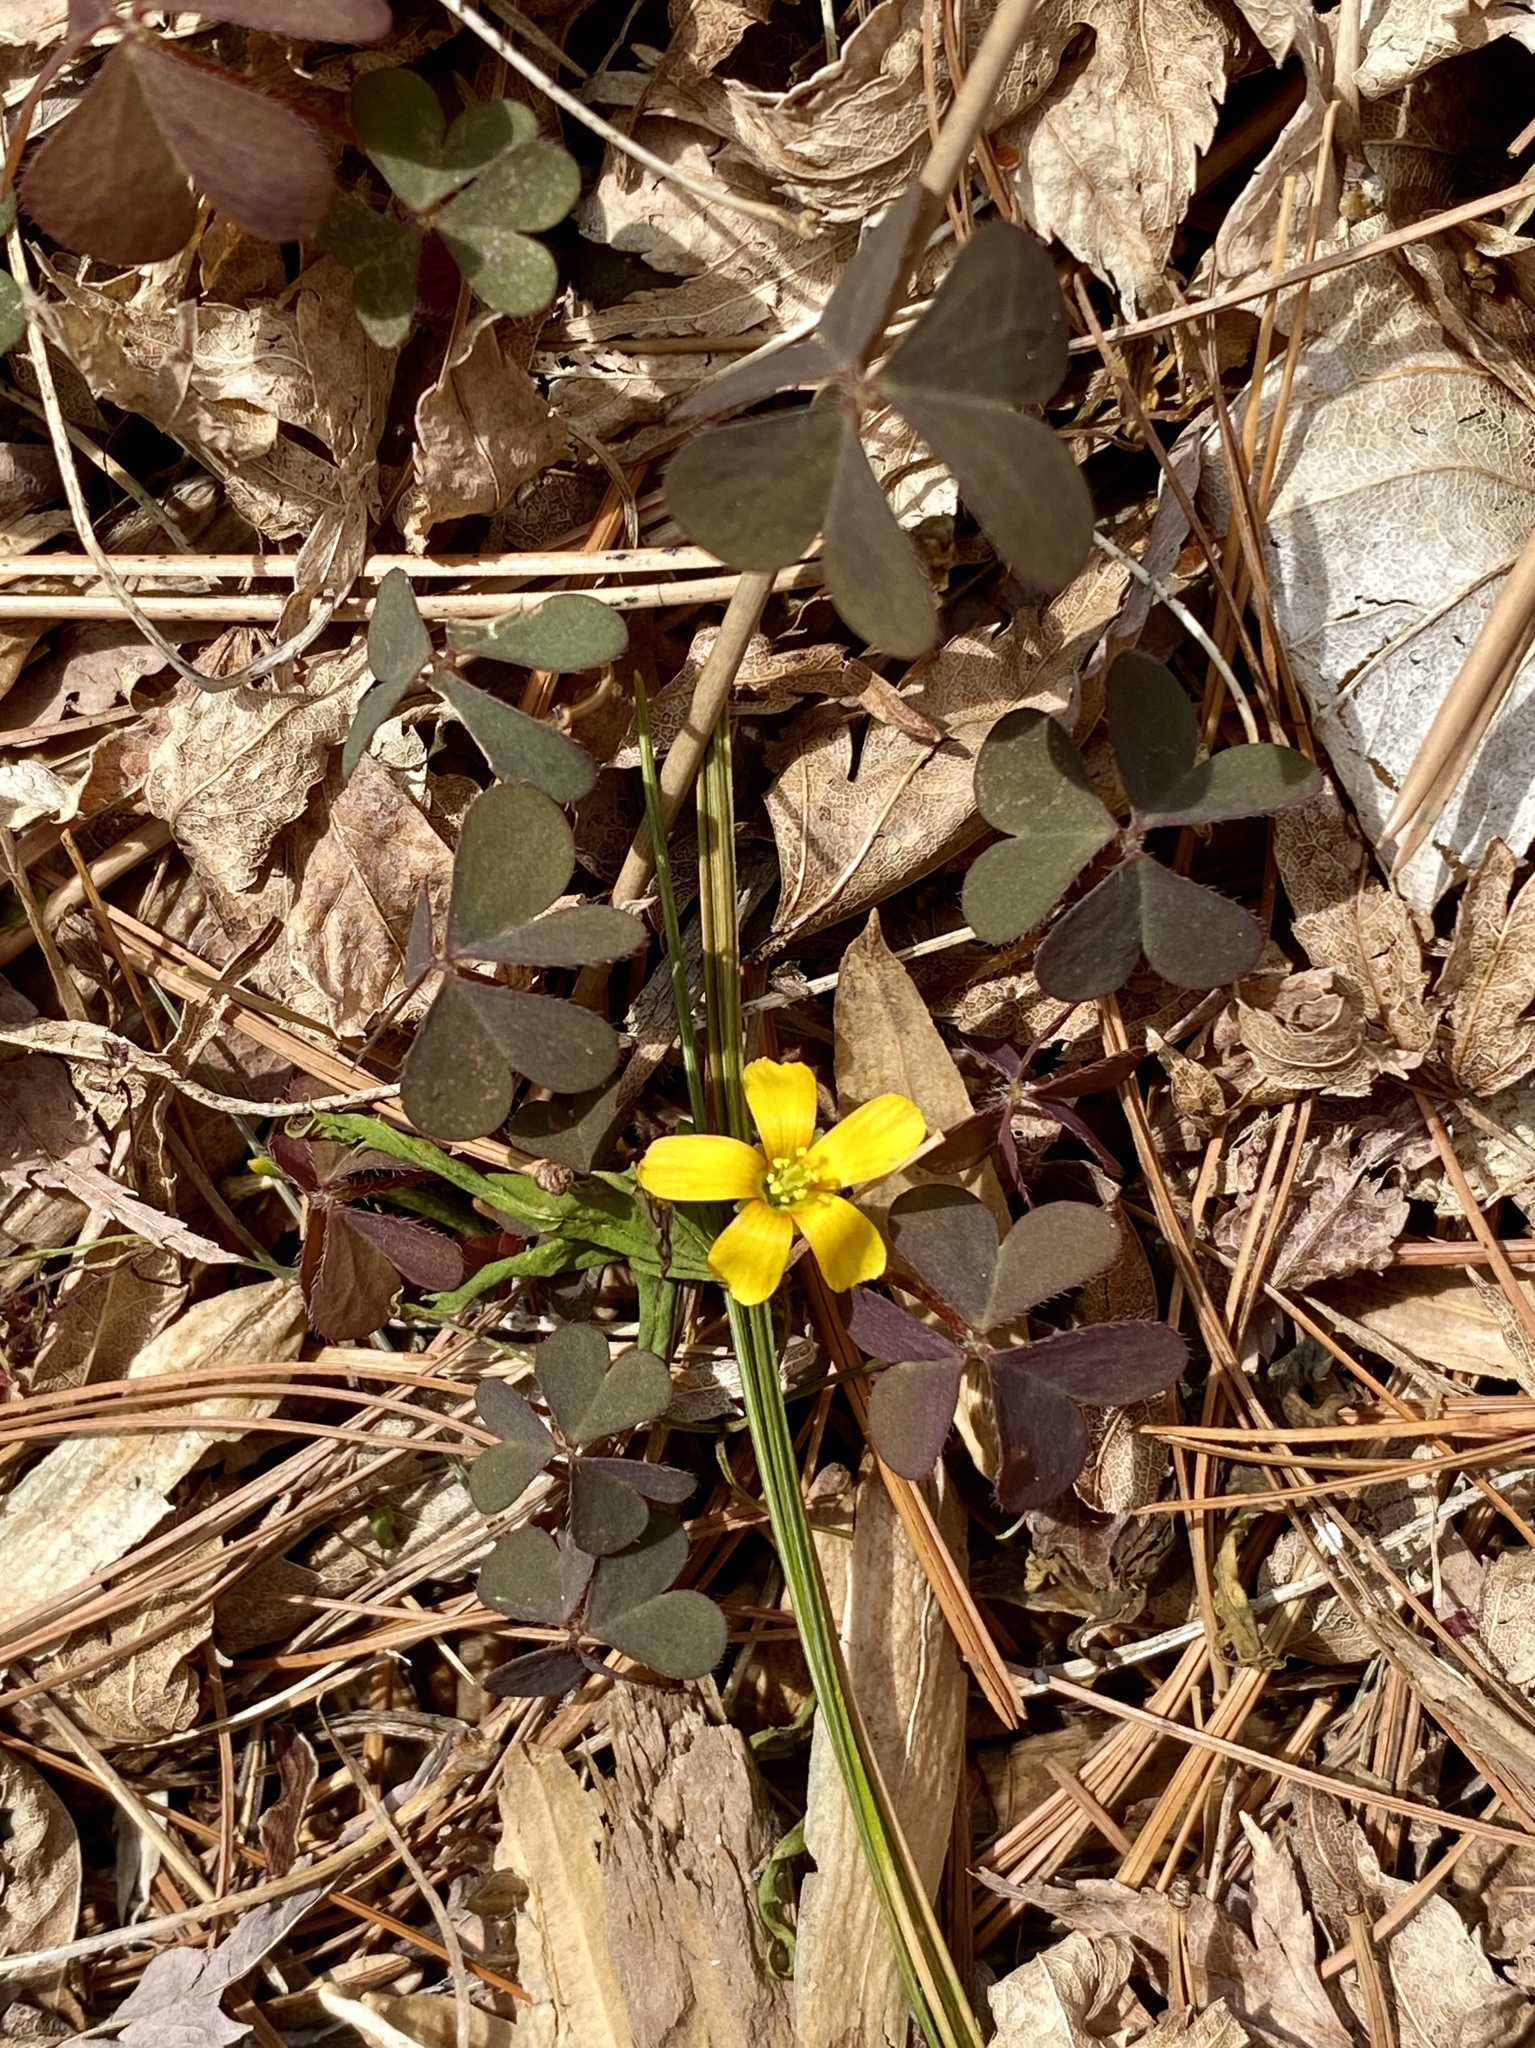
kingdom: Plantae
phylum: Tracheophyta
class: Magnoliopsida
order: Oxalidales
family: Oxalidaceae
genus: Oxalis
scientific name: Oxalis corniculata
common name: Procumbent yellow-sorrel
